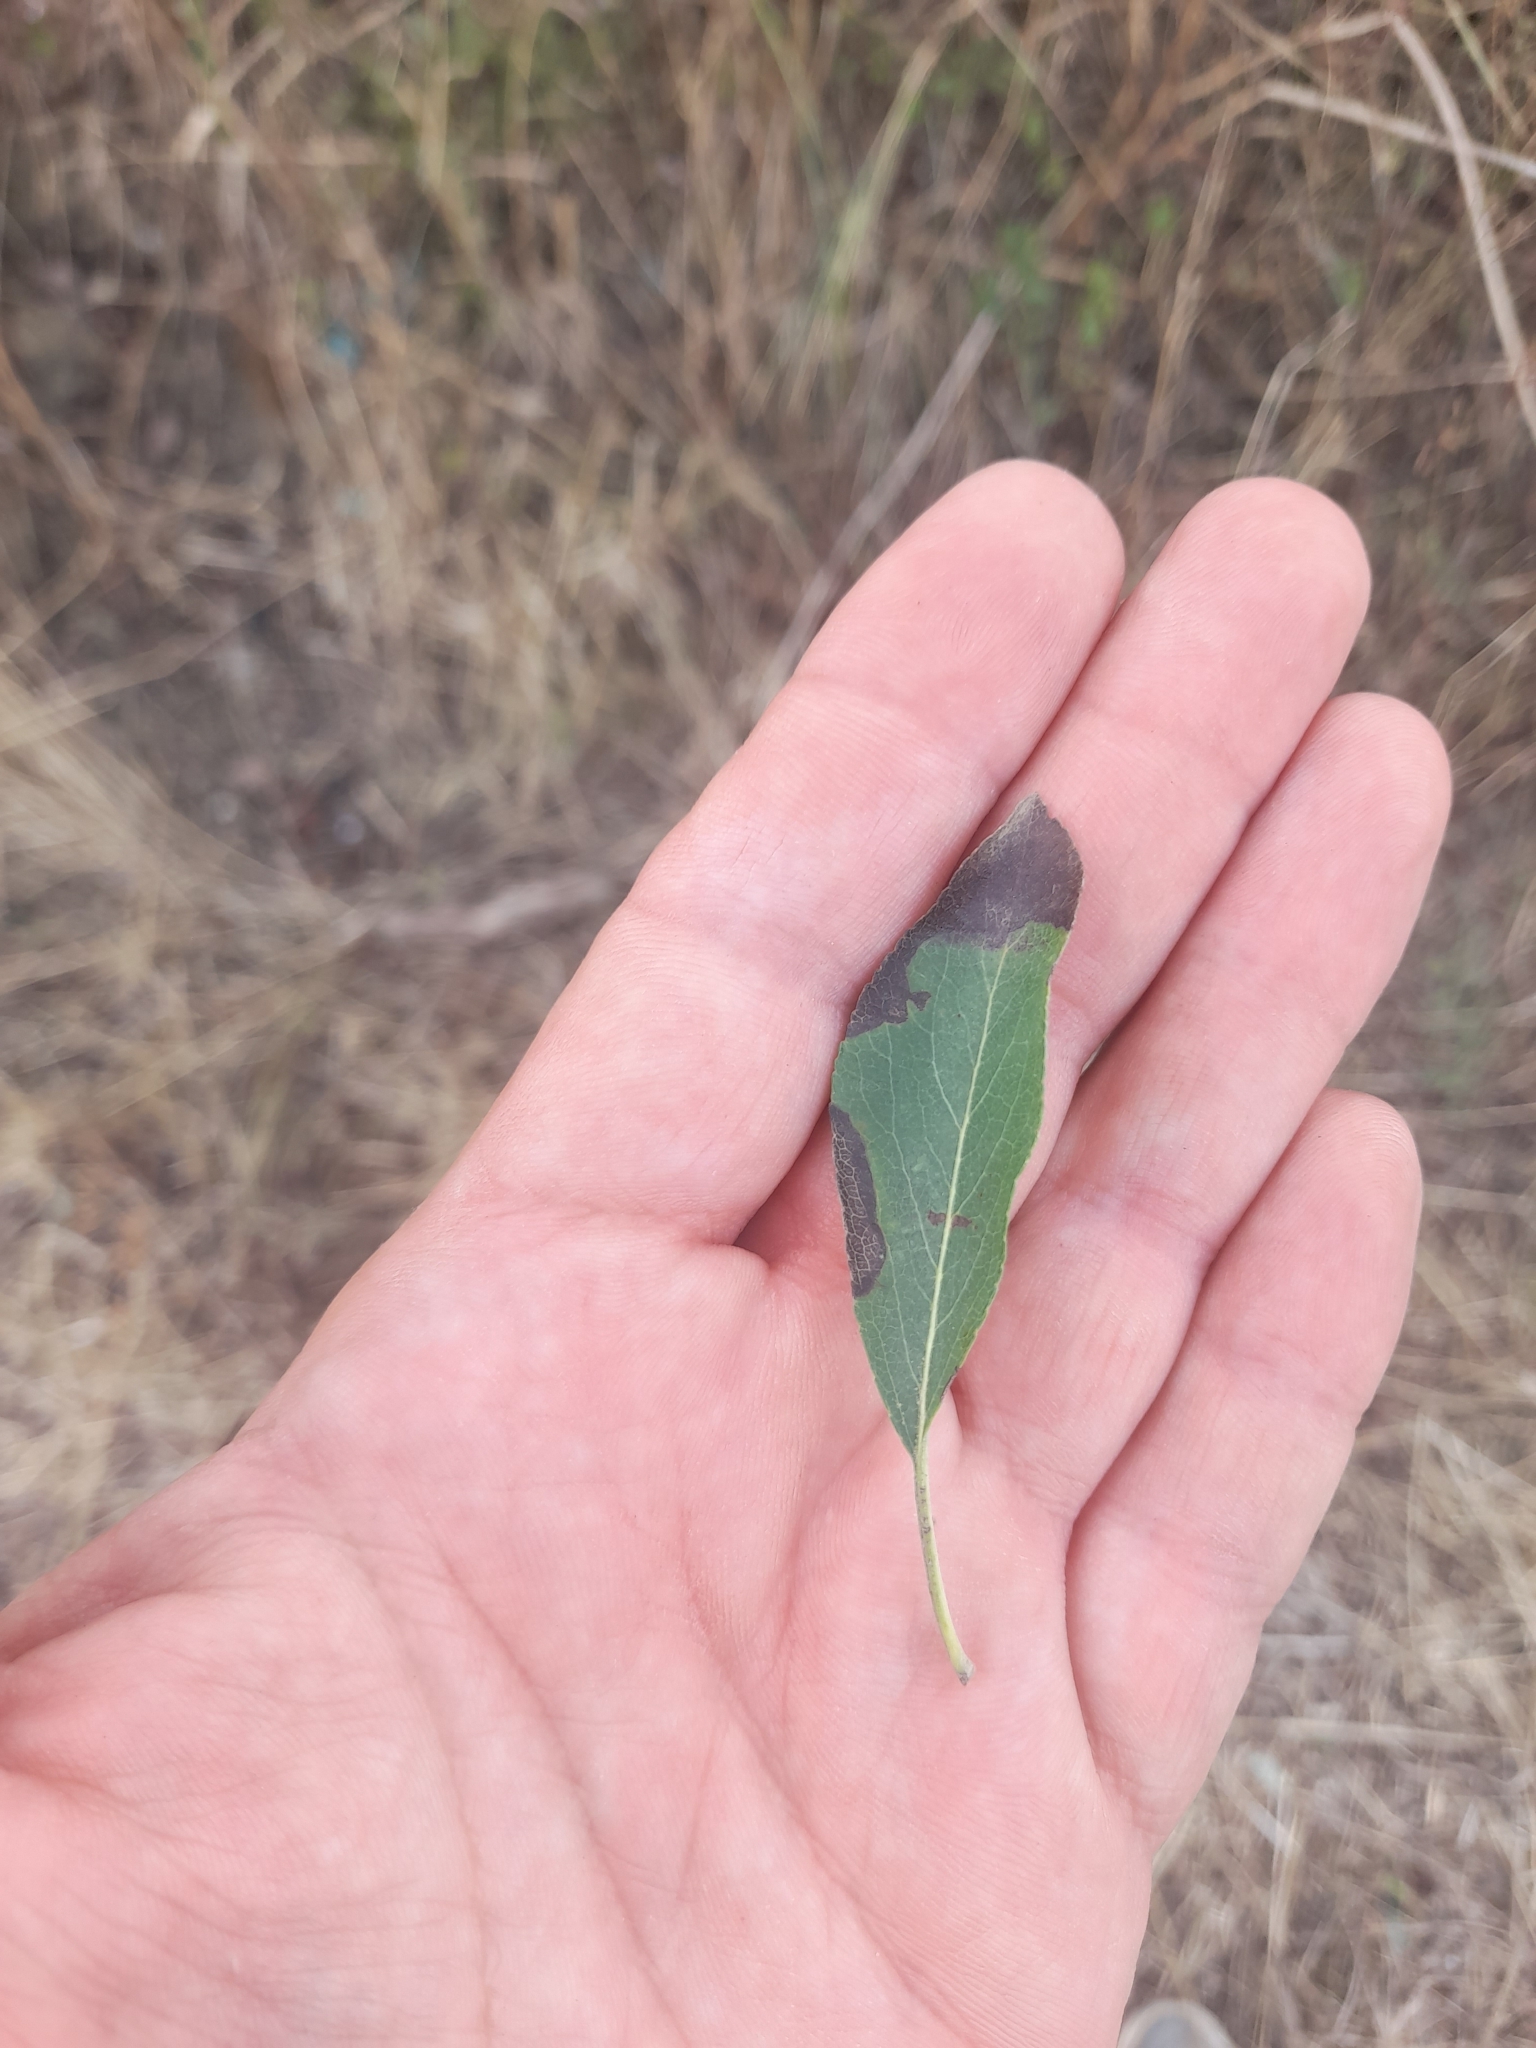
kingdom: Plantae
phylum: Tracheophyta
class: Magnoliopsida
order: Rosales
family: Rosaceae
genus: Pyrus
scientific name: Pyrus spinosa
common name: Almond-leaf pear
